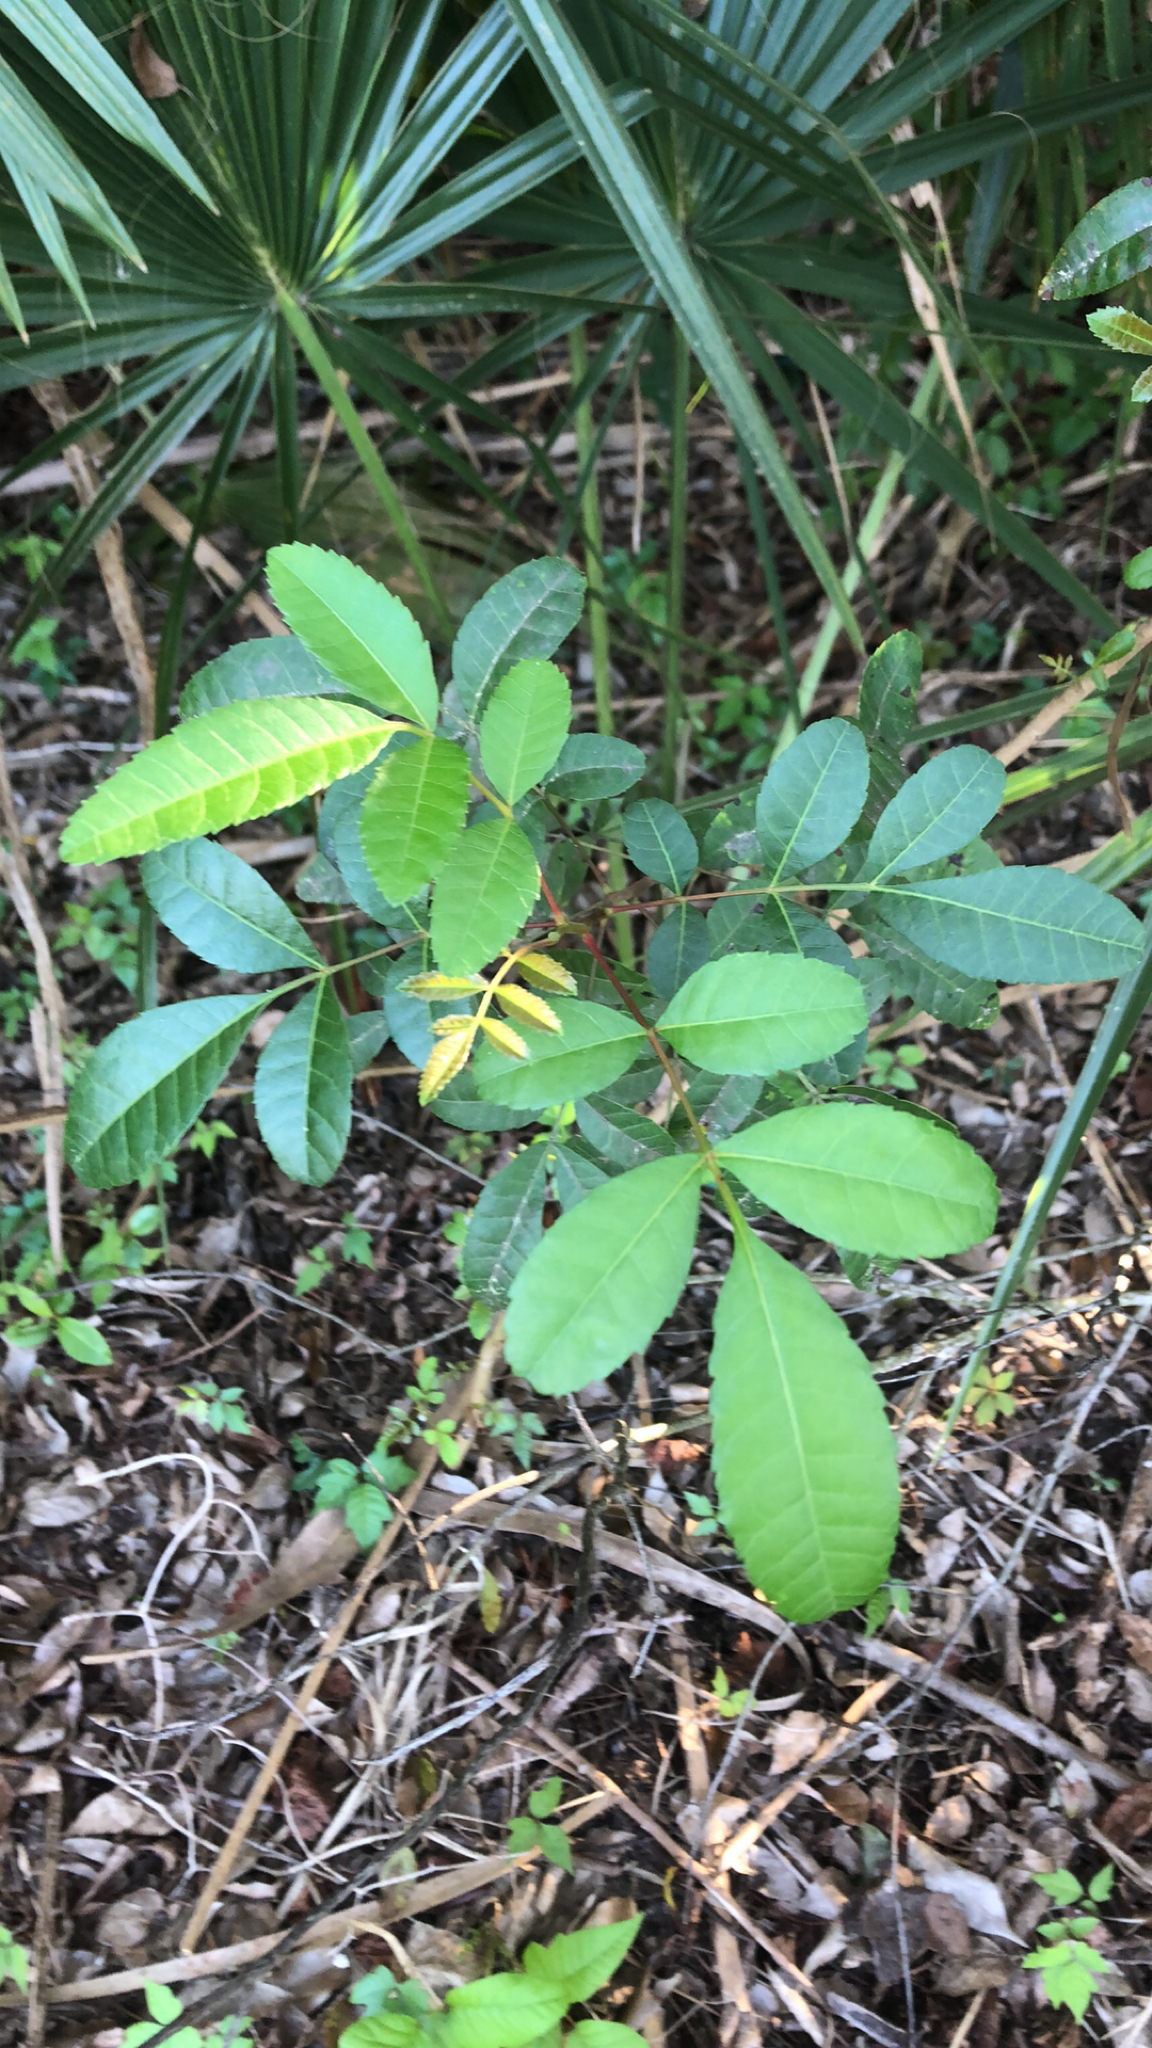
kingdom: Plantae
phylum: Tracheophyta
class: Magnoliopsida
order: Sapindales
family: Anacardiaceae
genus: Schinus
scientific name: Schinus terebinthifolia
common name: Brazilian peppertree
